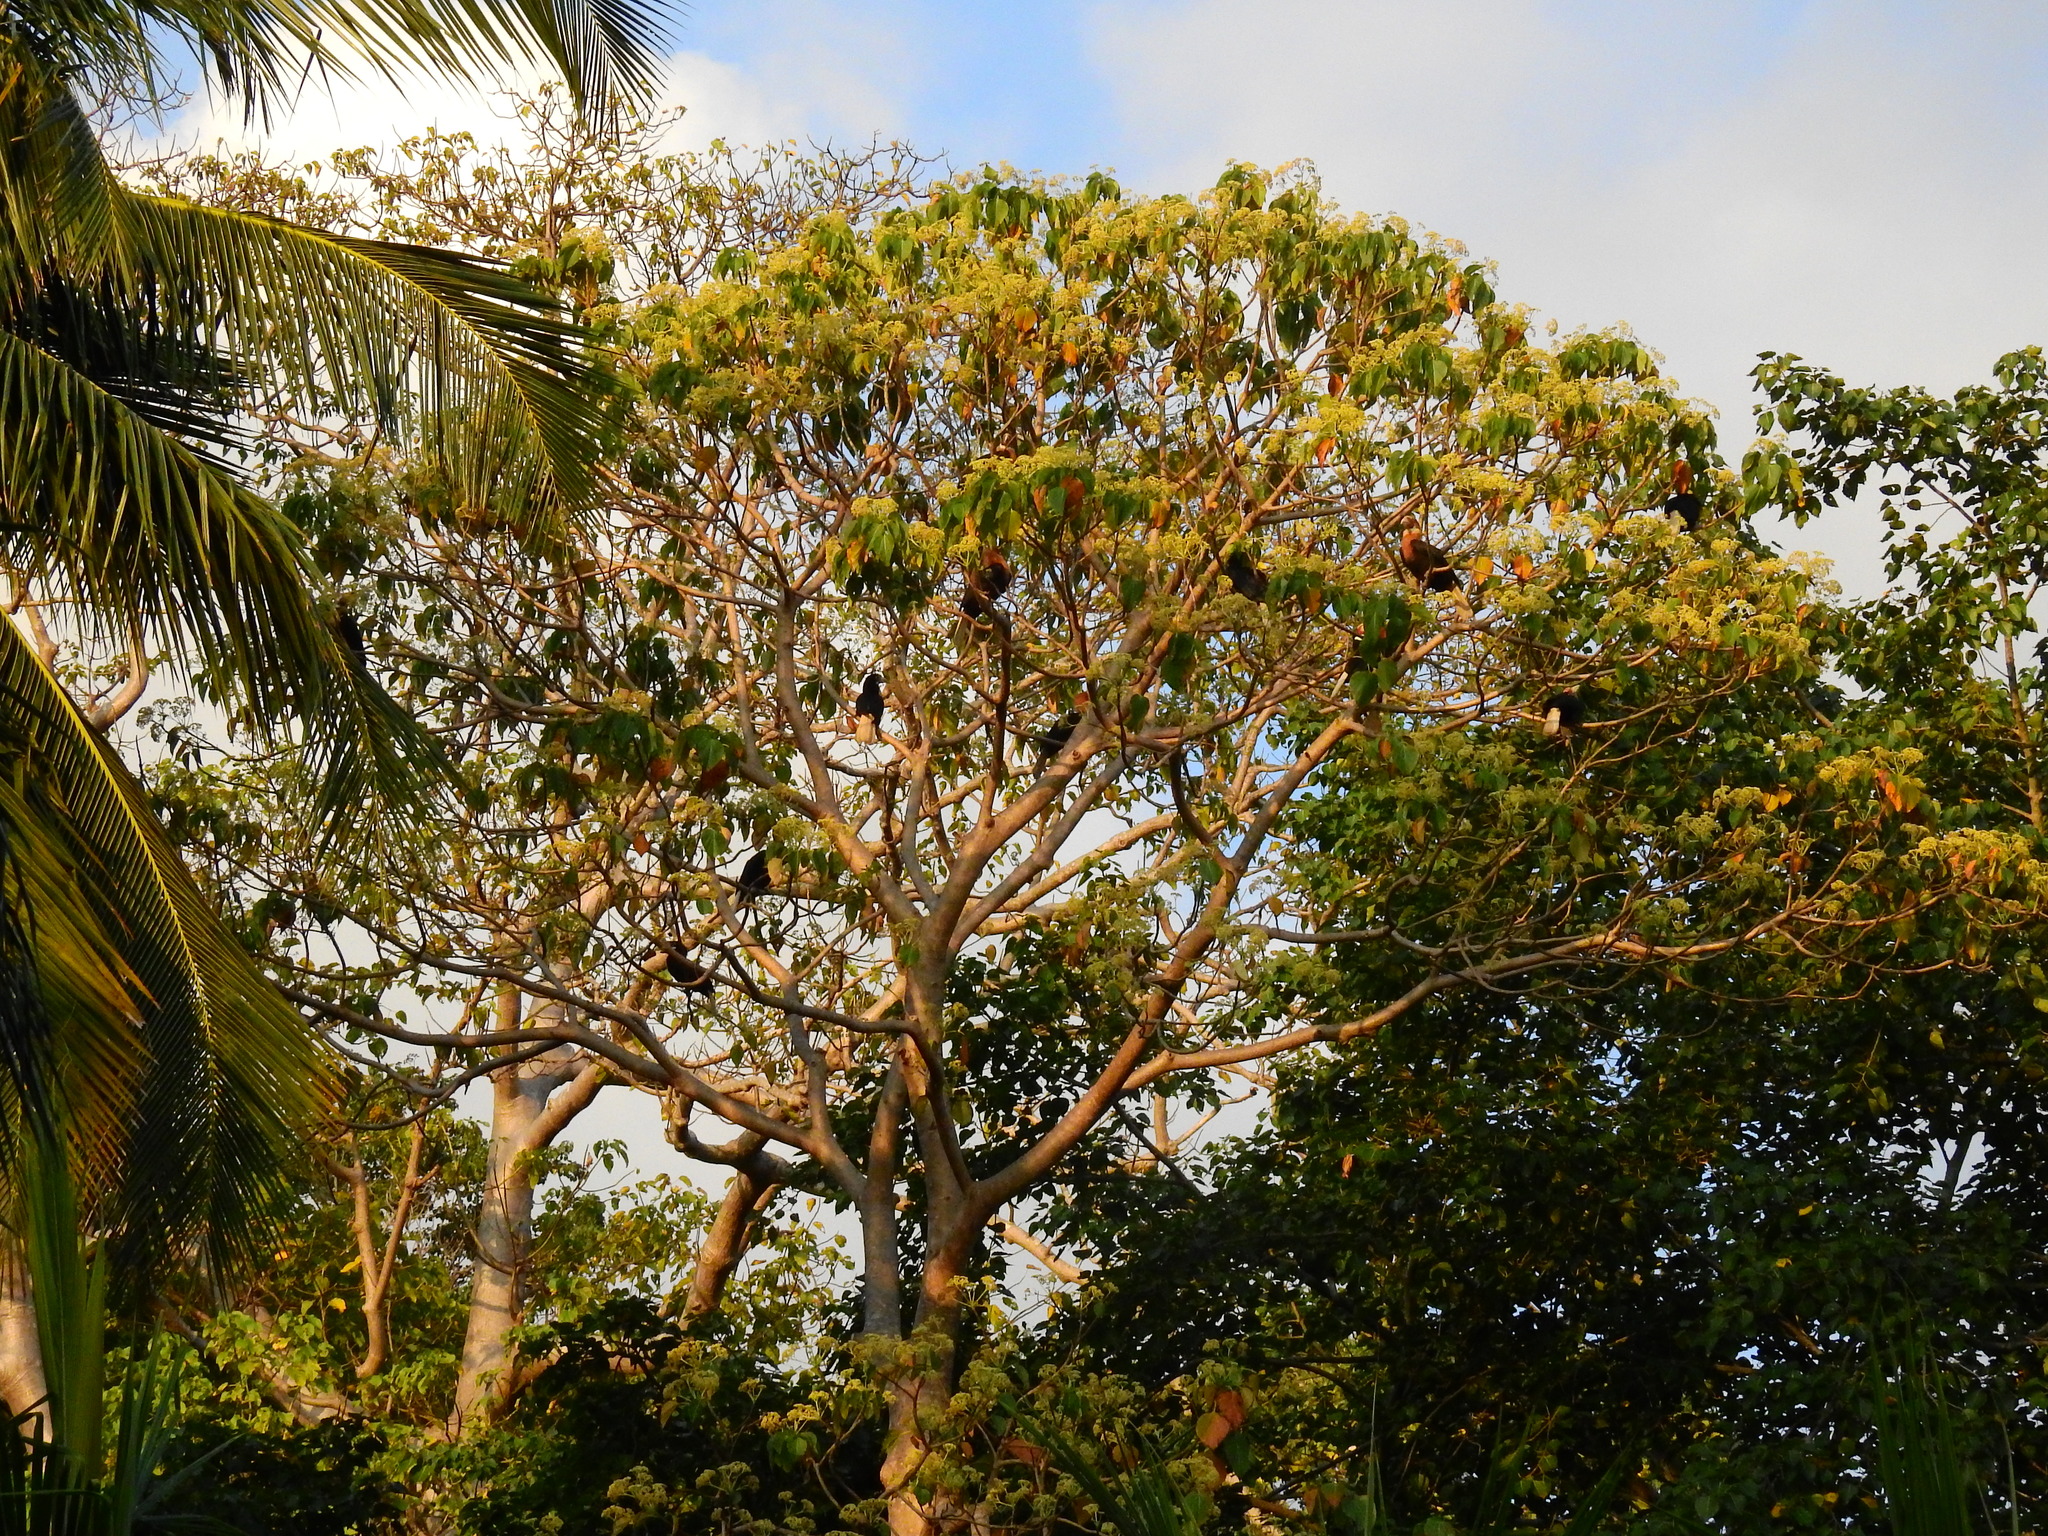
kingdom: Plantae
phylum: Tracheophyta
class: Magnoliopsida
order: Laurales
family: Hernandiaceae
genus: Gyrocarpus
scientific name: Gyrocarpus americanus
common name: Gyro damson
